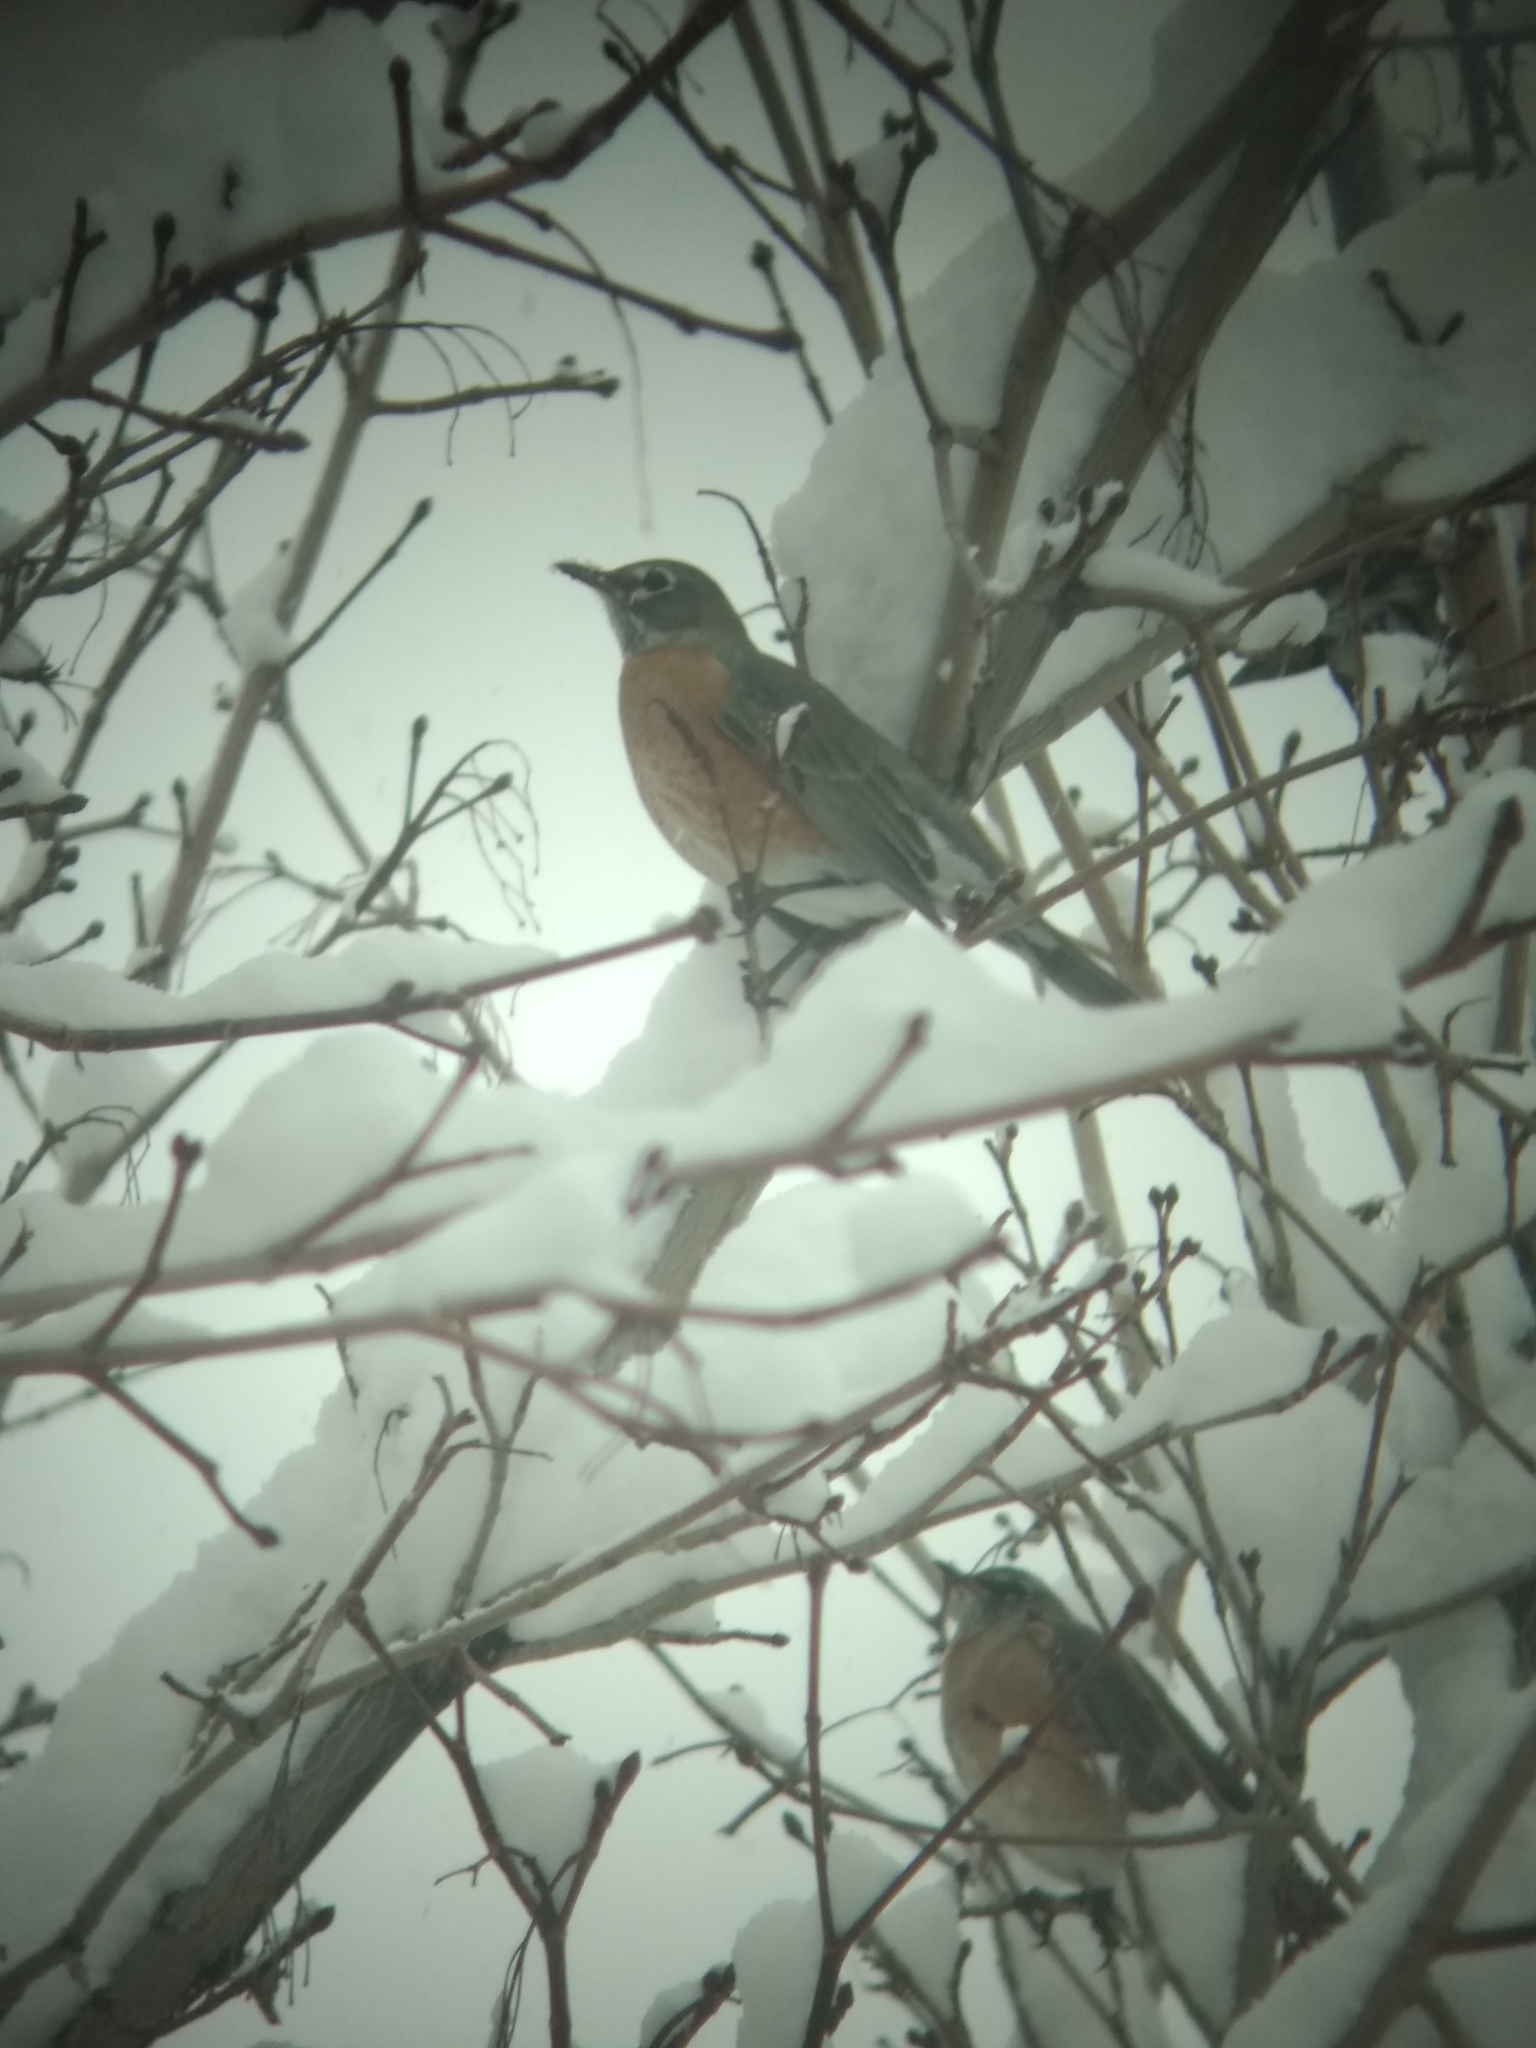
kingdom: Animalia
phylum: Chordata
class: Aves
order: Passeriformes
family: Turdidae
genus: Turdus
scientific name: Turdus migratorius
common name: American robin
